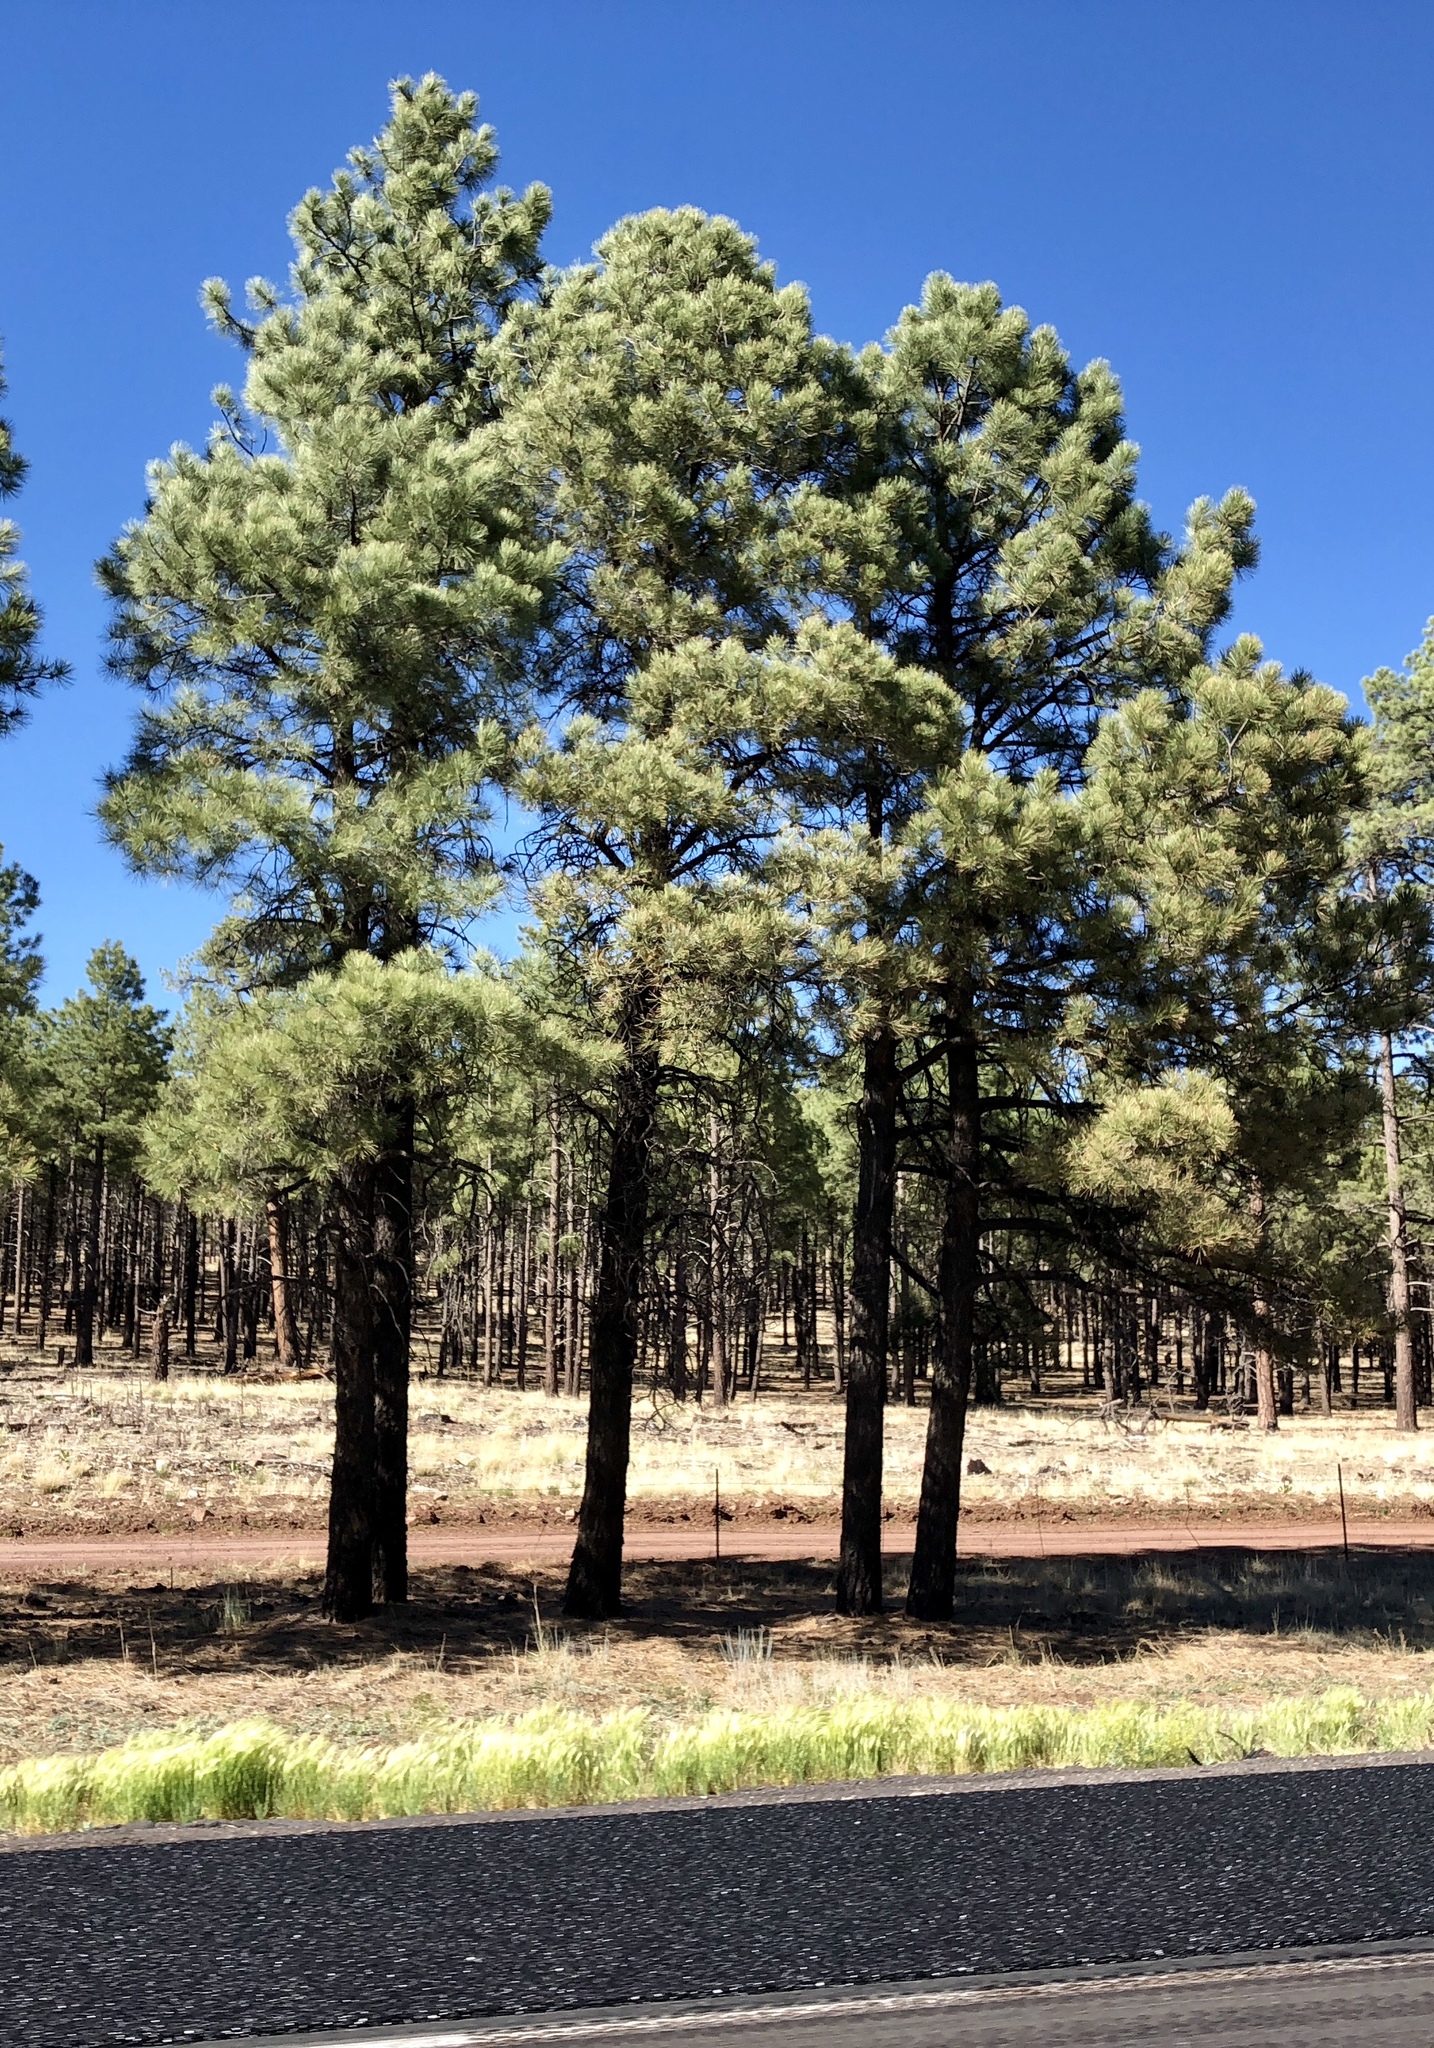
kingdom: Plantae
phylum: Tracheophyta
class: Pinopsida
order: Pinales
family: Pinaceae
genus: Pinus
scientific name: Pinus ponderosa
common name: Western yellow-pine
